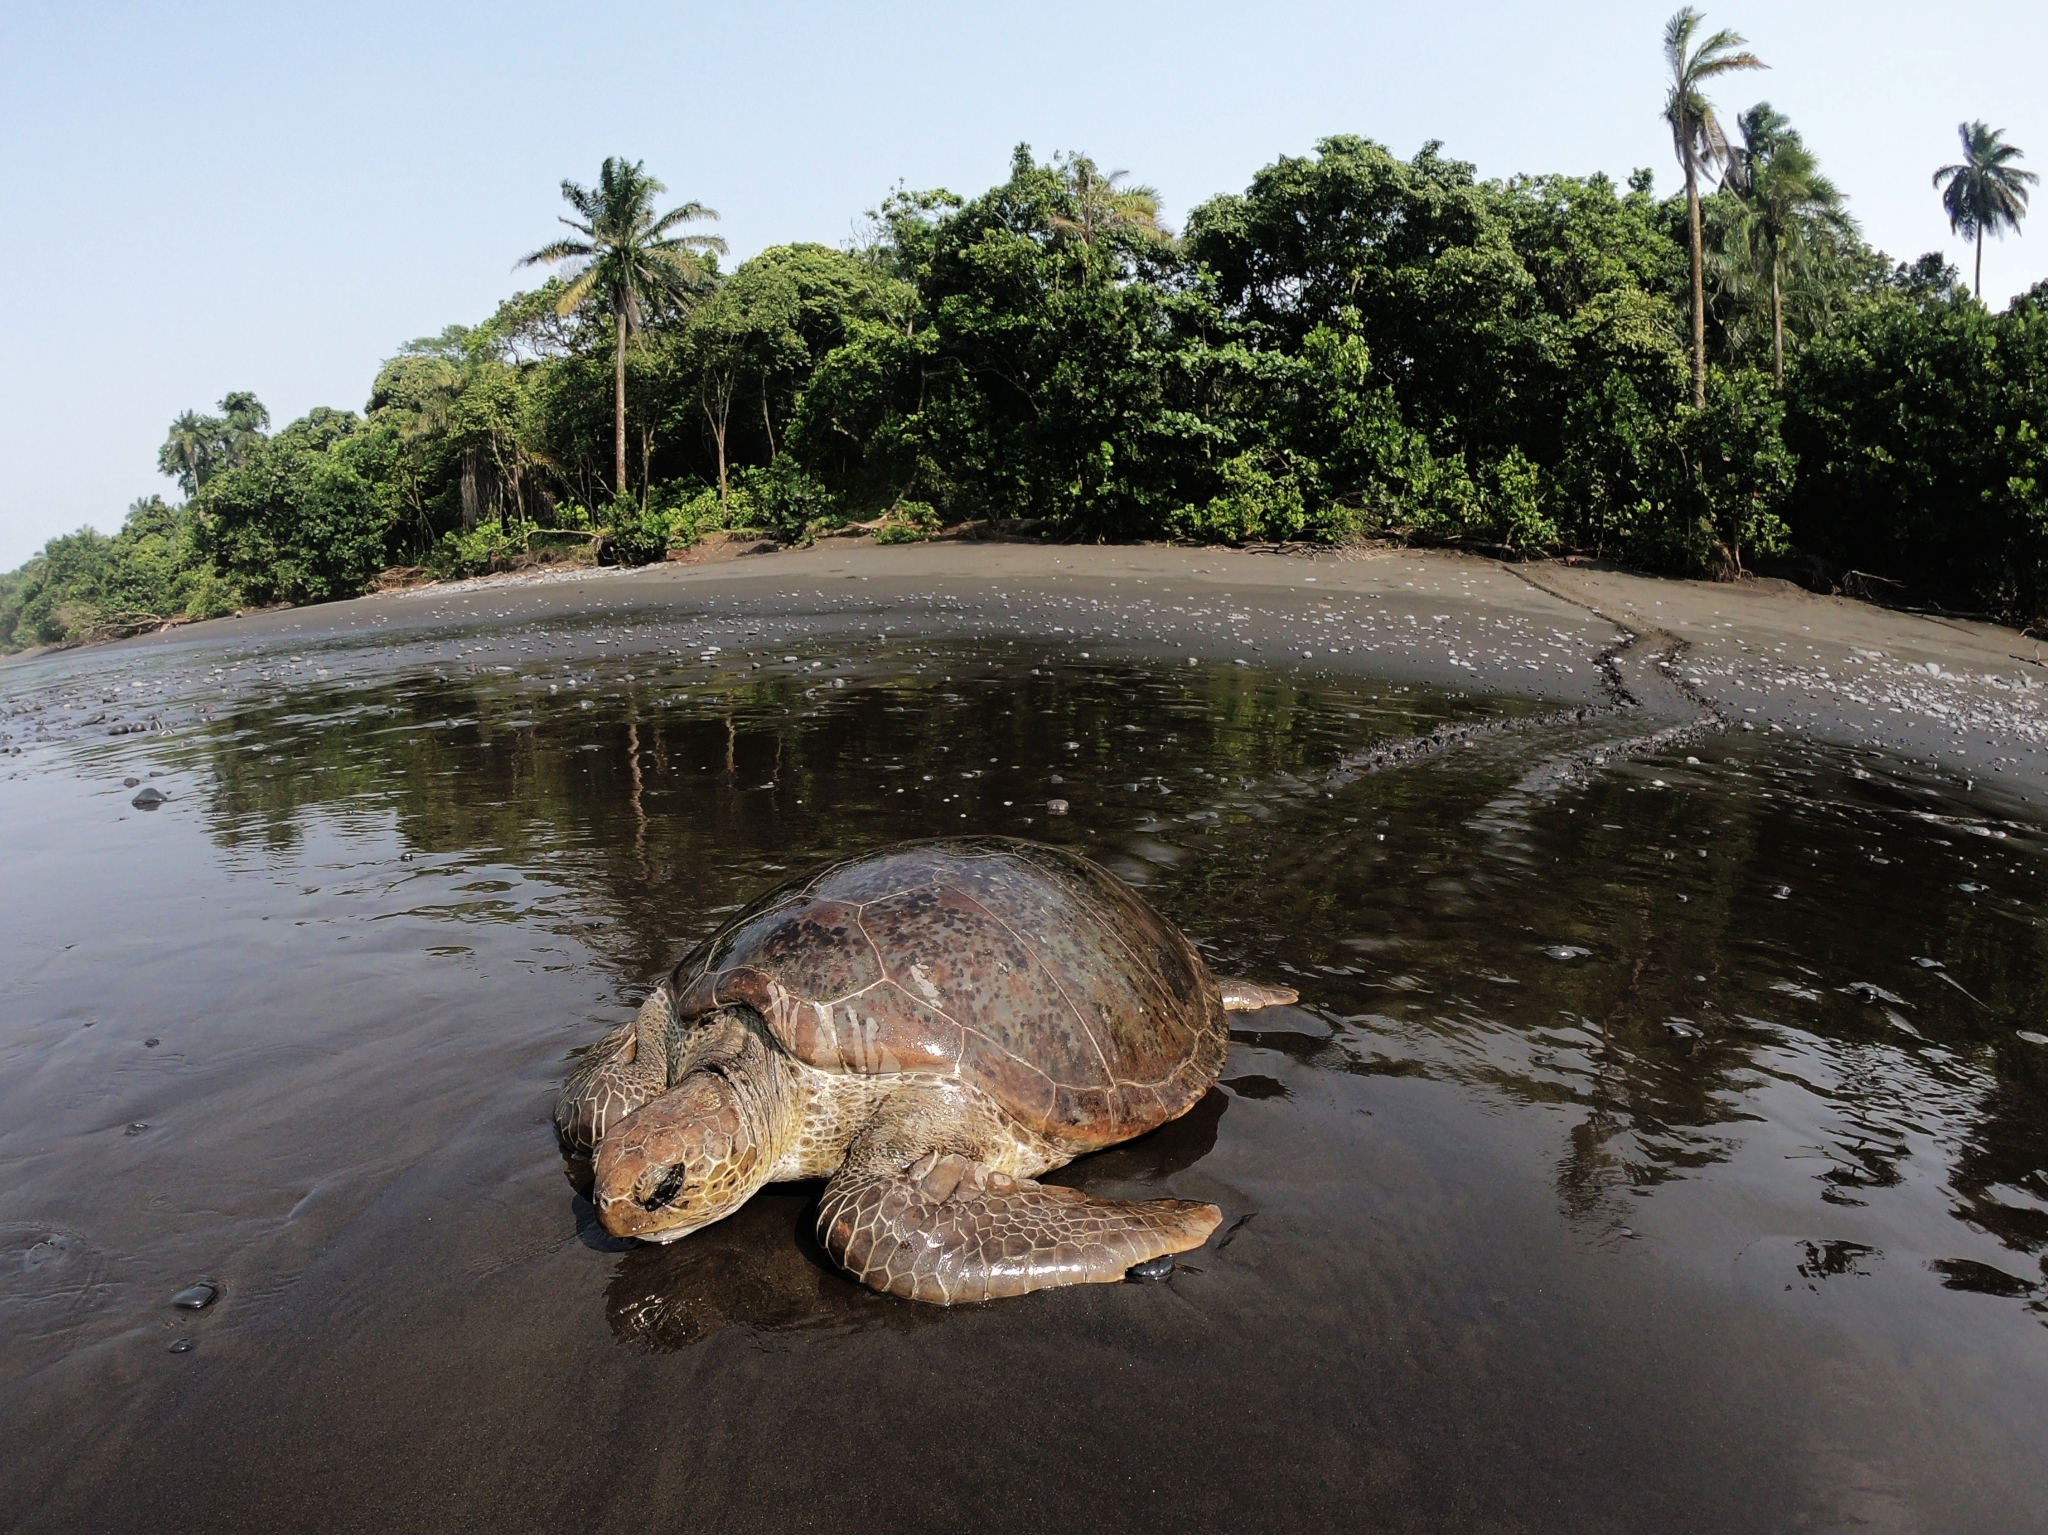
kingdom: Animalia
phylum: Chordata
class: Testudines
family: Cheloniidae
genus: Chelonia
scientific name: Chelonia mydas
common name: Green turtle
